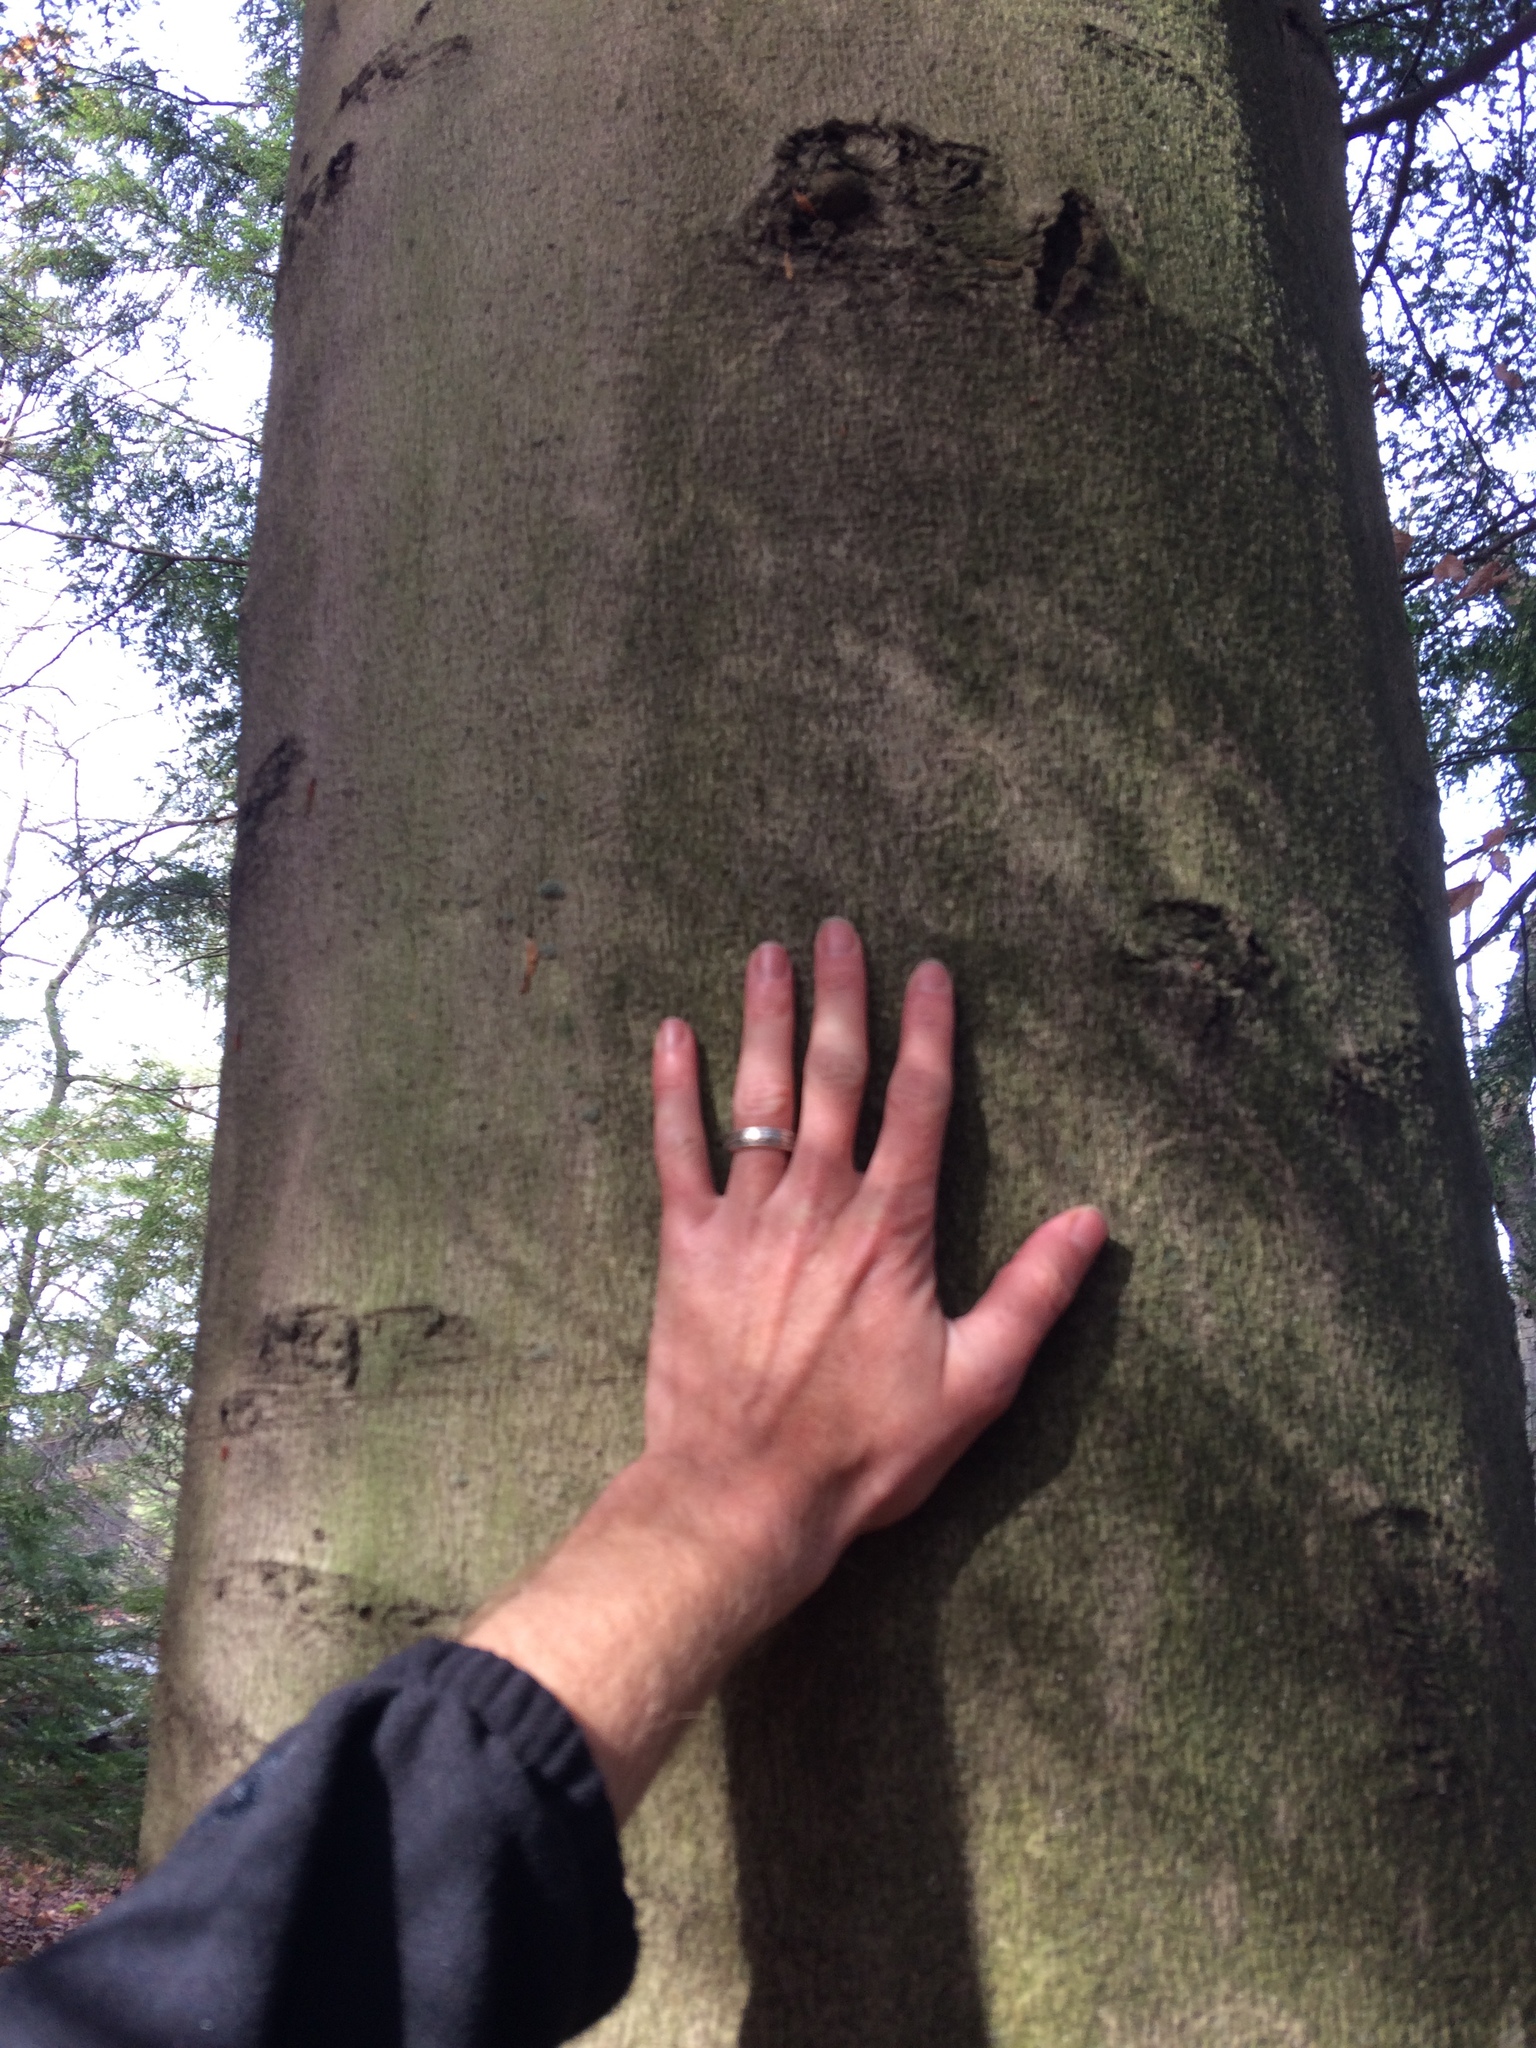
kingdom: Plantae
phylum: Tracheophyta
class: Magnoliopsida
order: Fagales
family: Fagaceae
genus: Fagus
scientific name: Fagus grandifolia
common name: American beech
